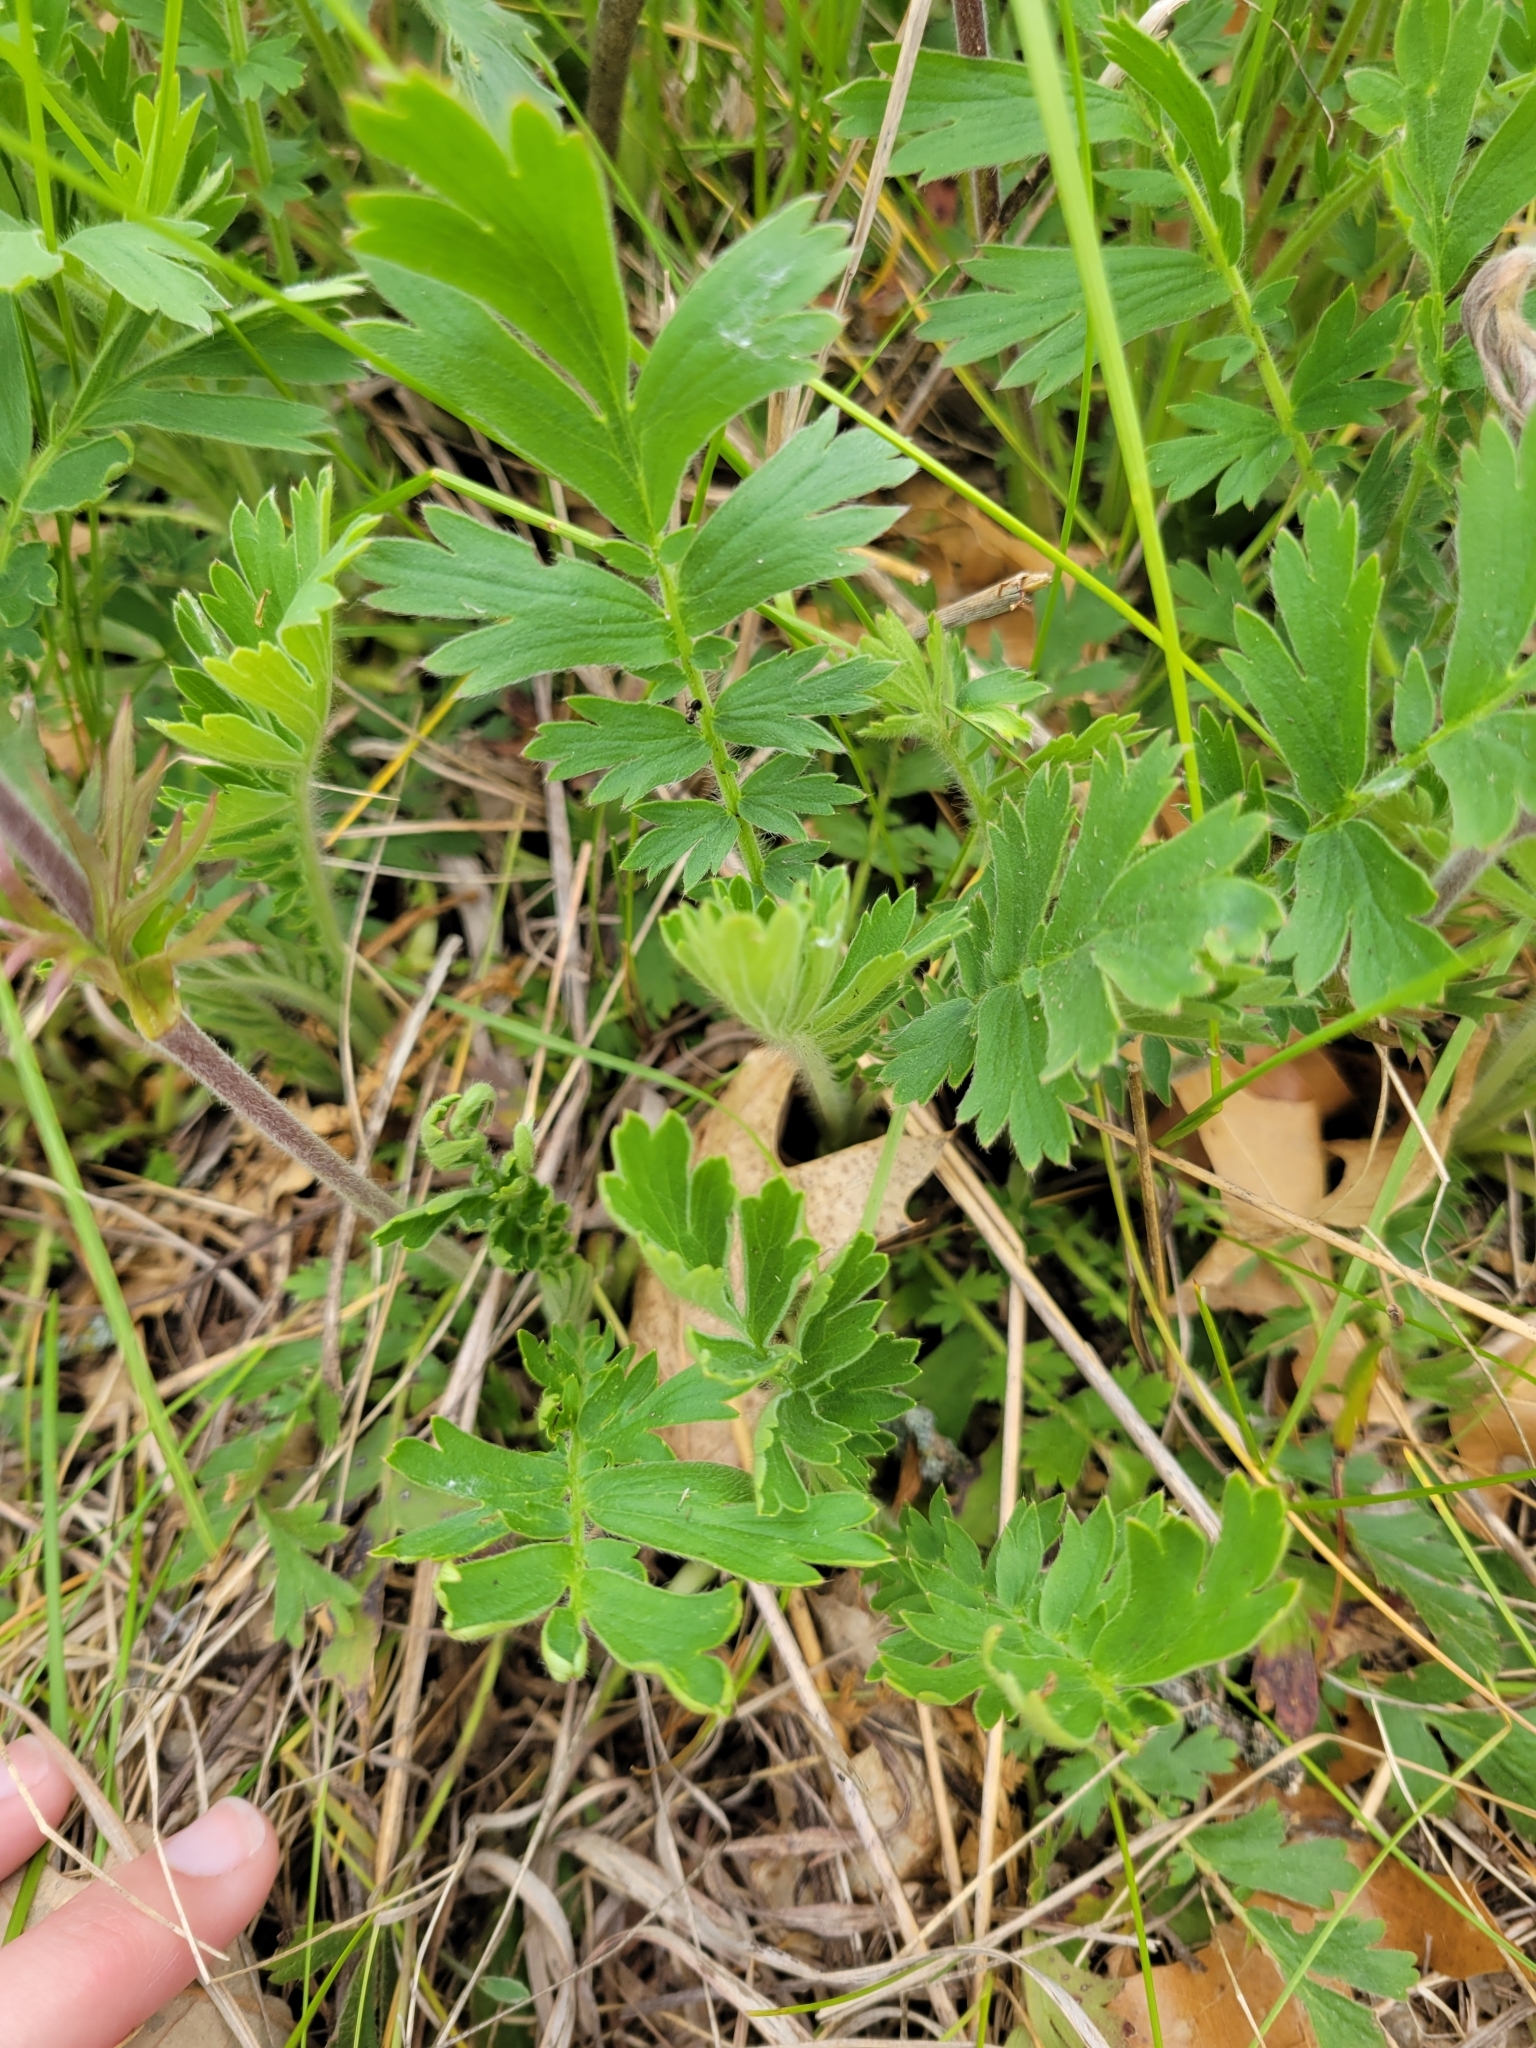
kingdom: Plantae
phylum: Tracheophyta
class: Magnoliopsida
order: Rosales
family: Rosaceae
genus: Geum
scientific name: Geum triflorum
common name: Old man's whiskers
